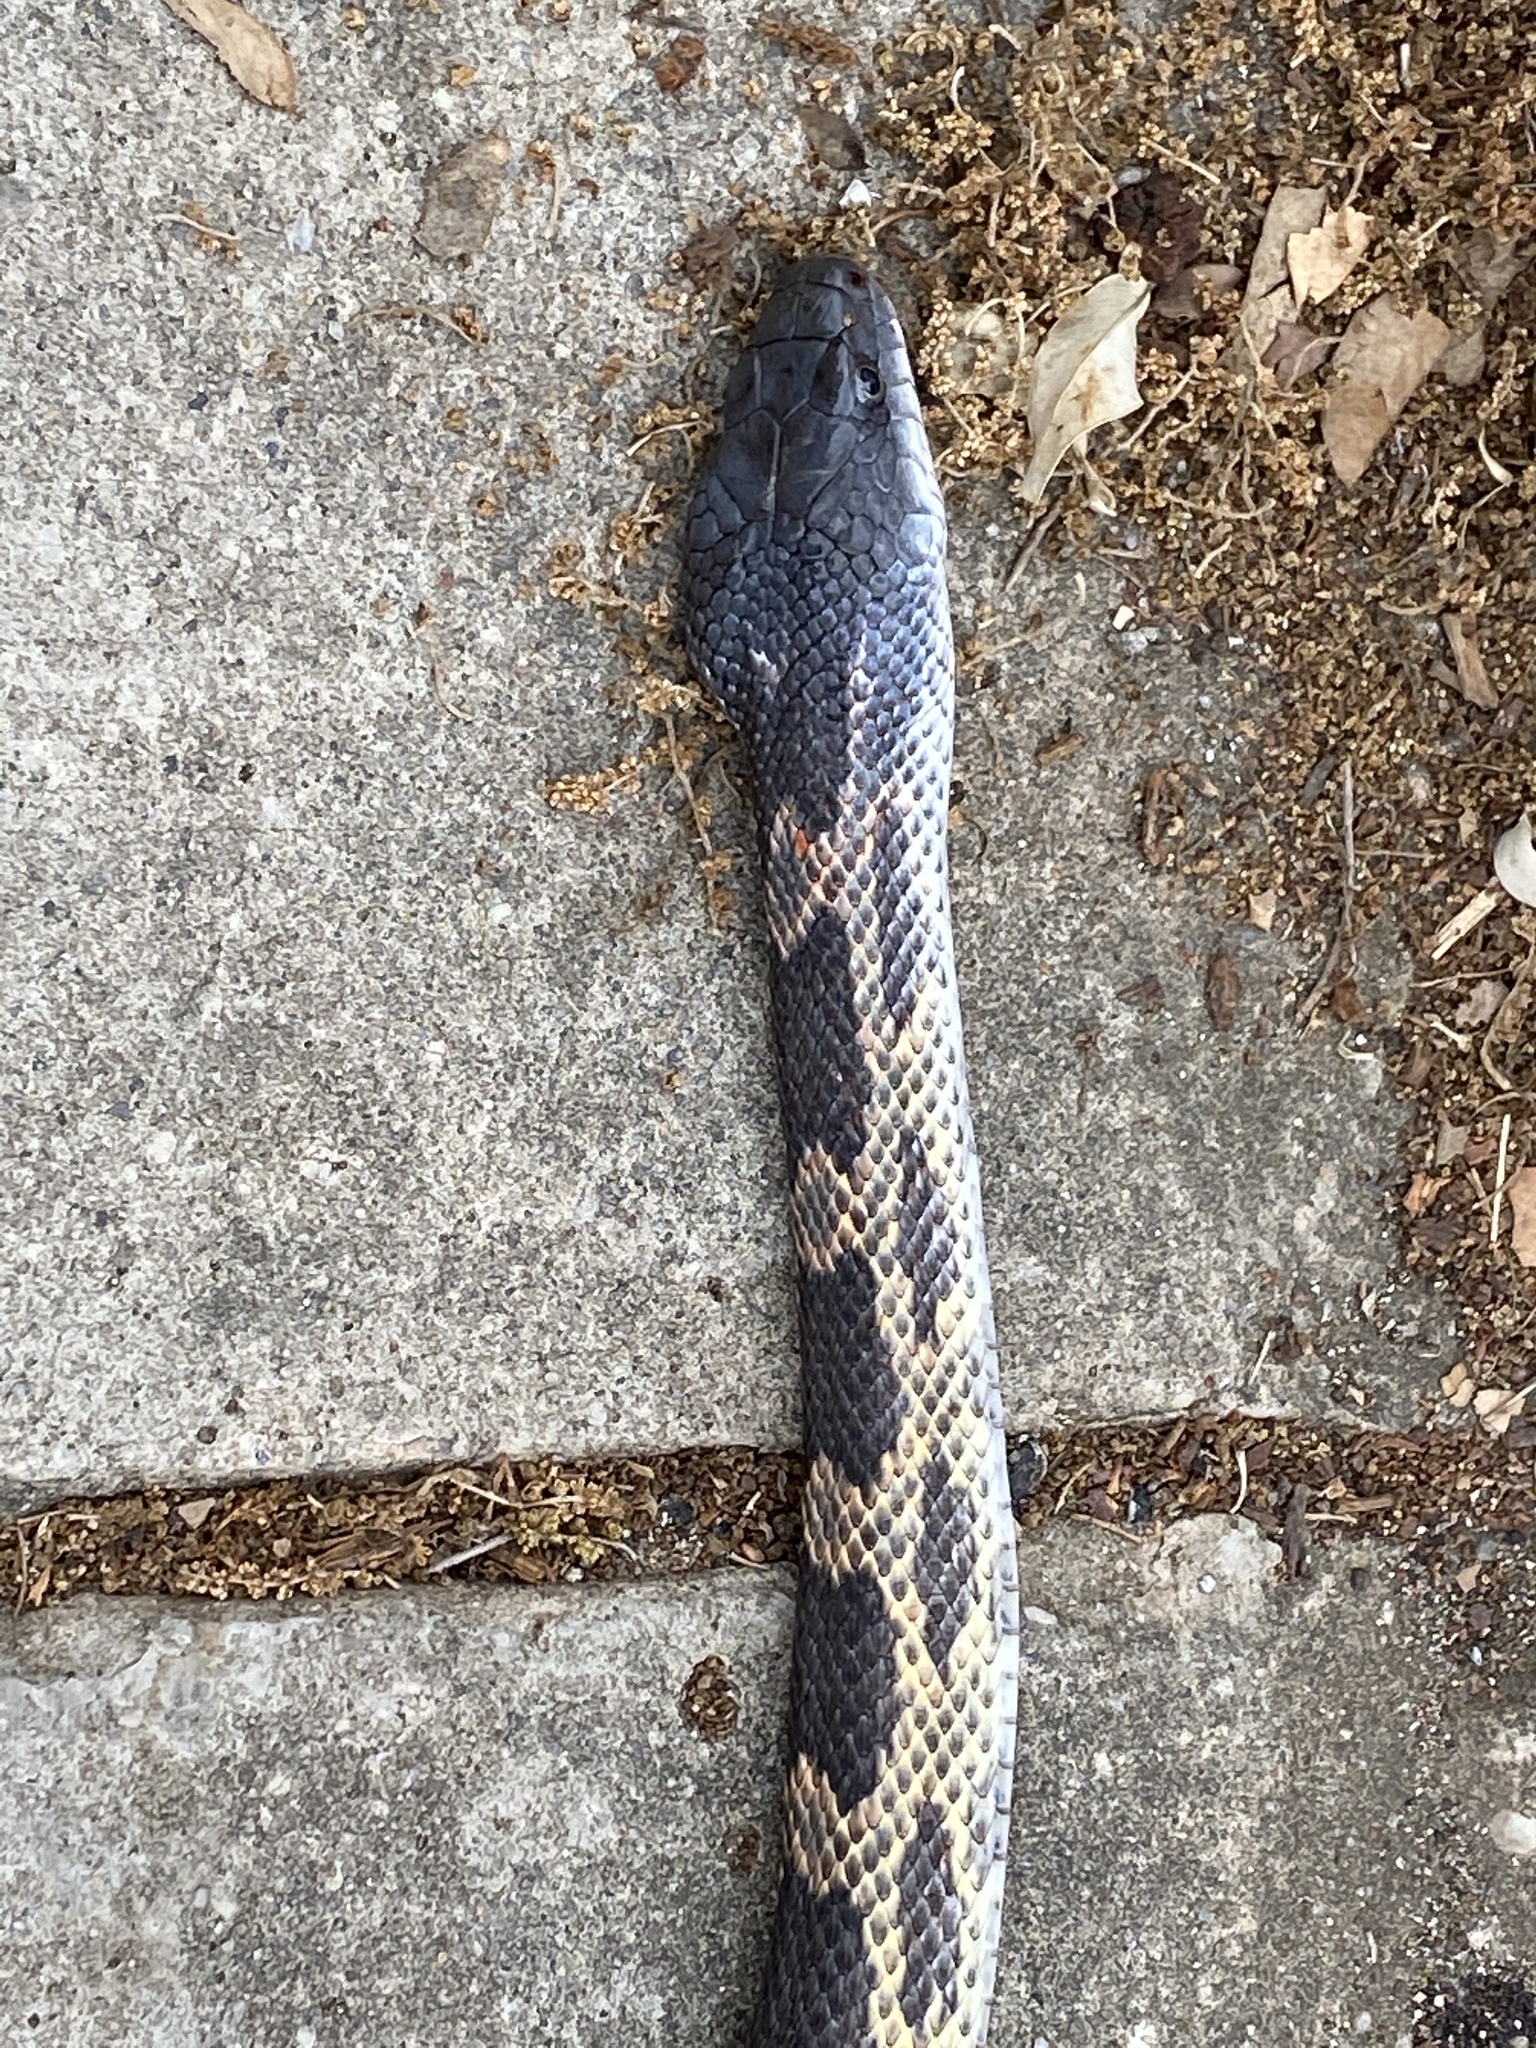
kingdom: Animalia
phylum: Chordata
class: Squamata
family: Colubridae
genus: Pantherophis
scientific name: Pantherophis obsoletus
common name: Black rat snake
